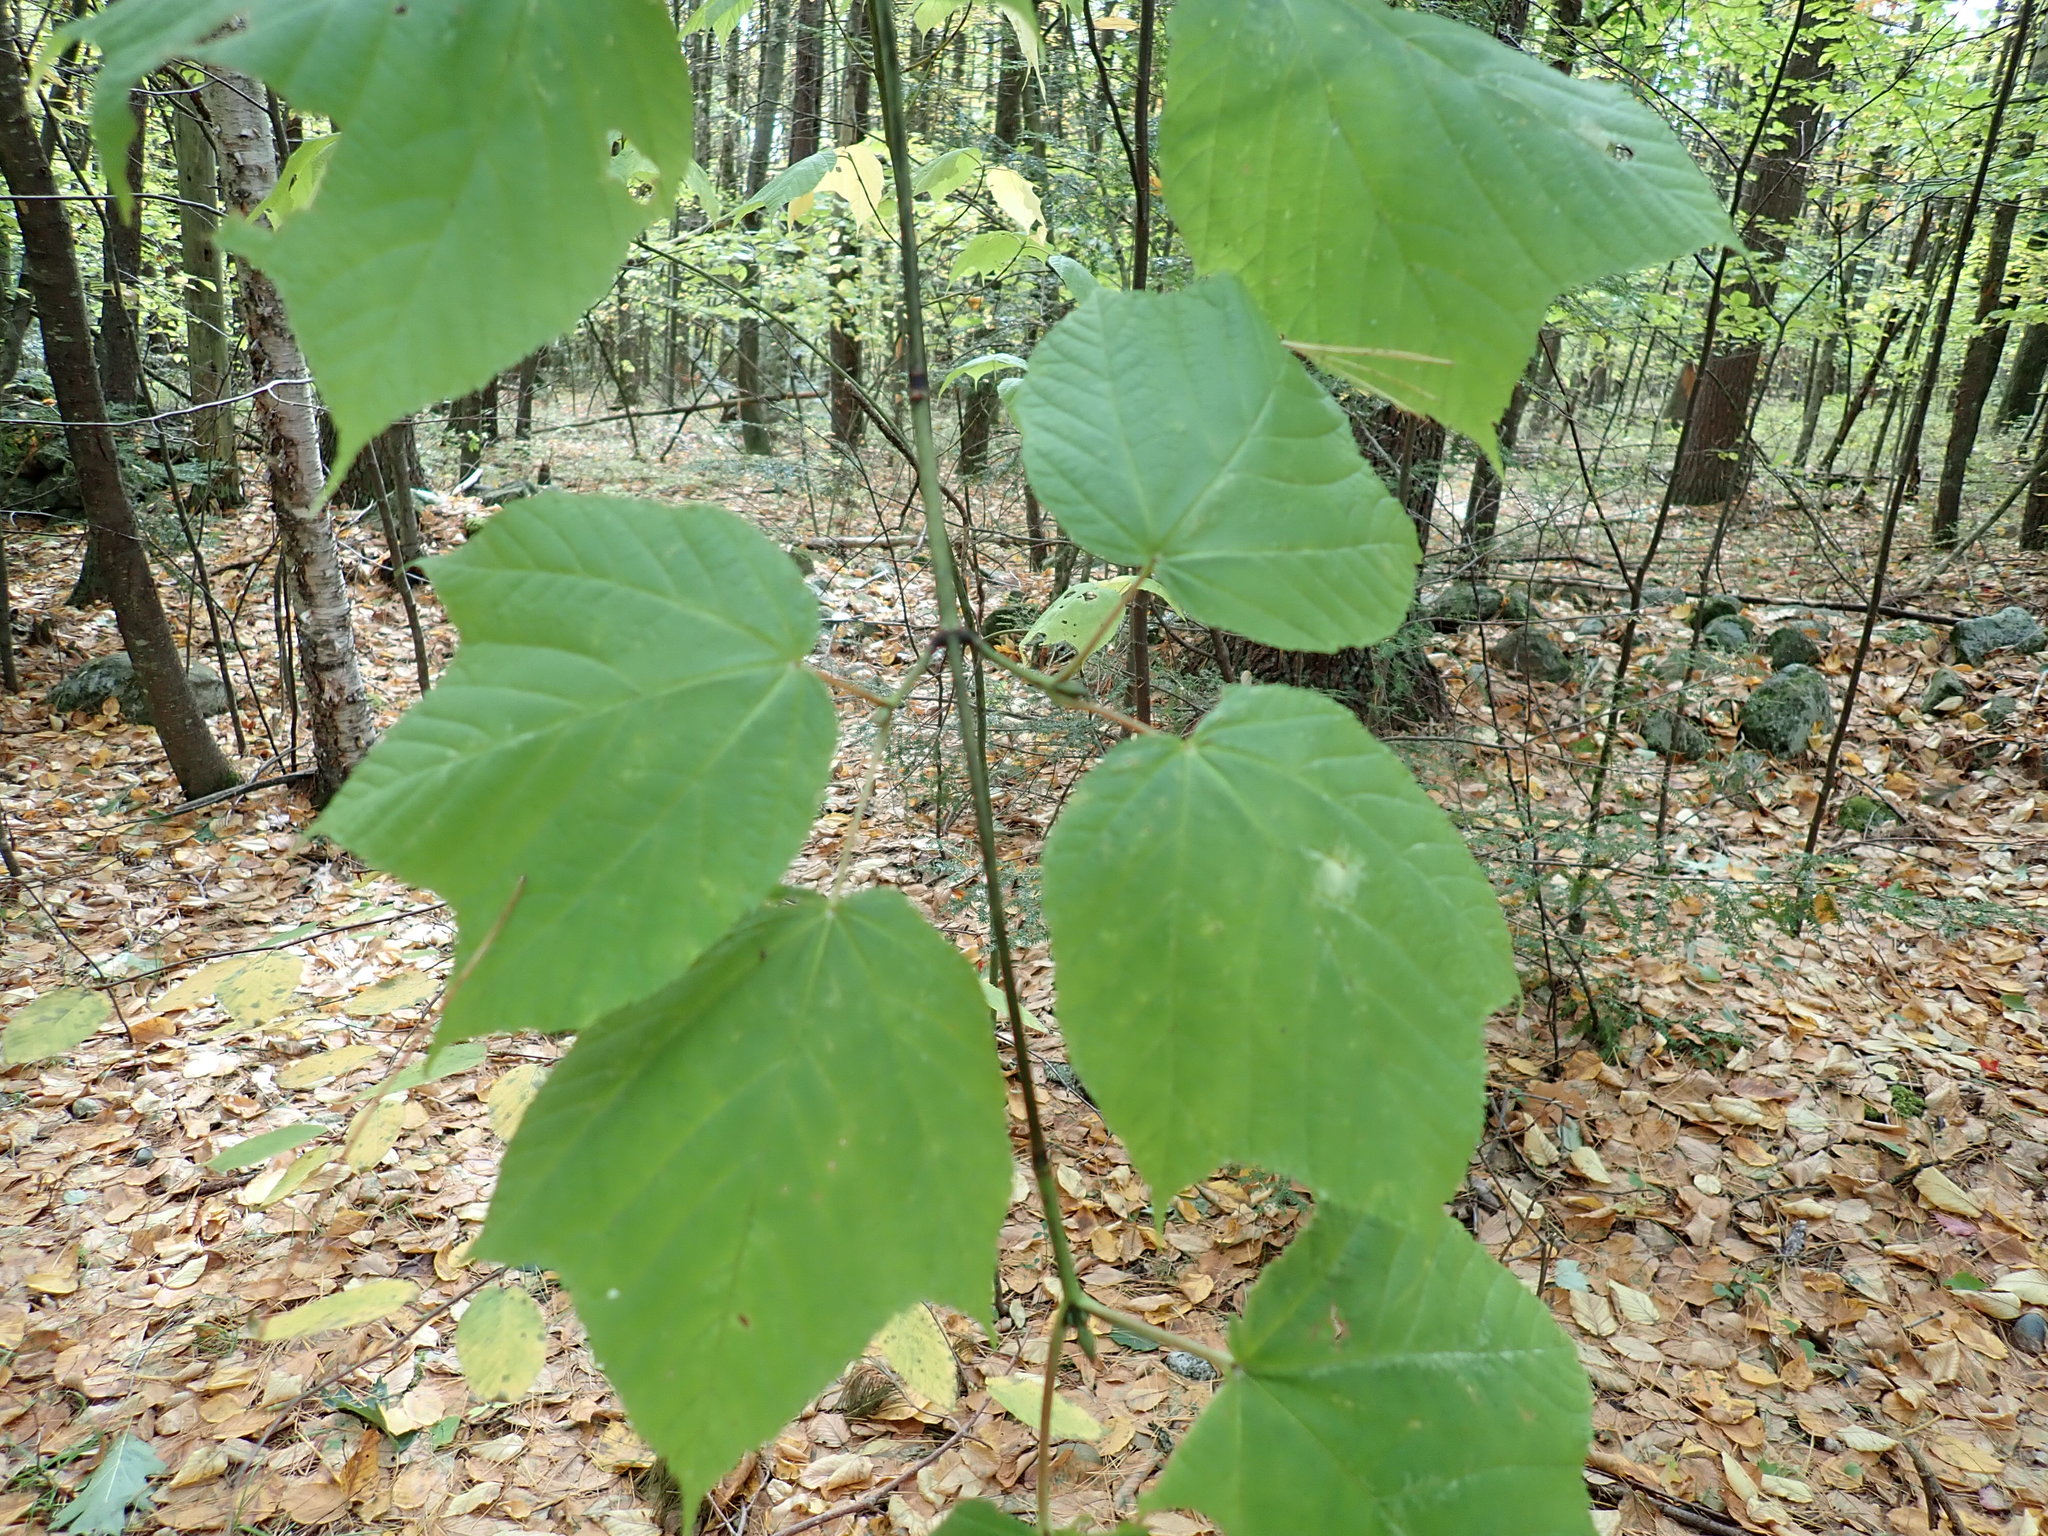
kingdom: Plantae
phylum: Tracheophyta
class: Magnoliopsida
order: Sapindales
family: Sapindaceae
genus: Acer
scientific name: Acer pensylvanicum
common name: Moosewood
